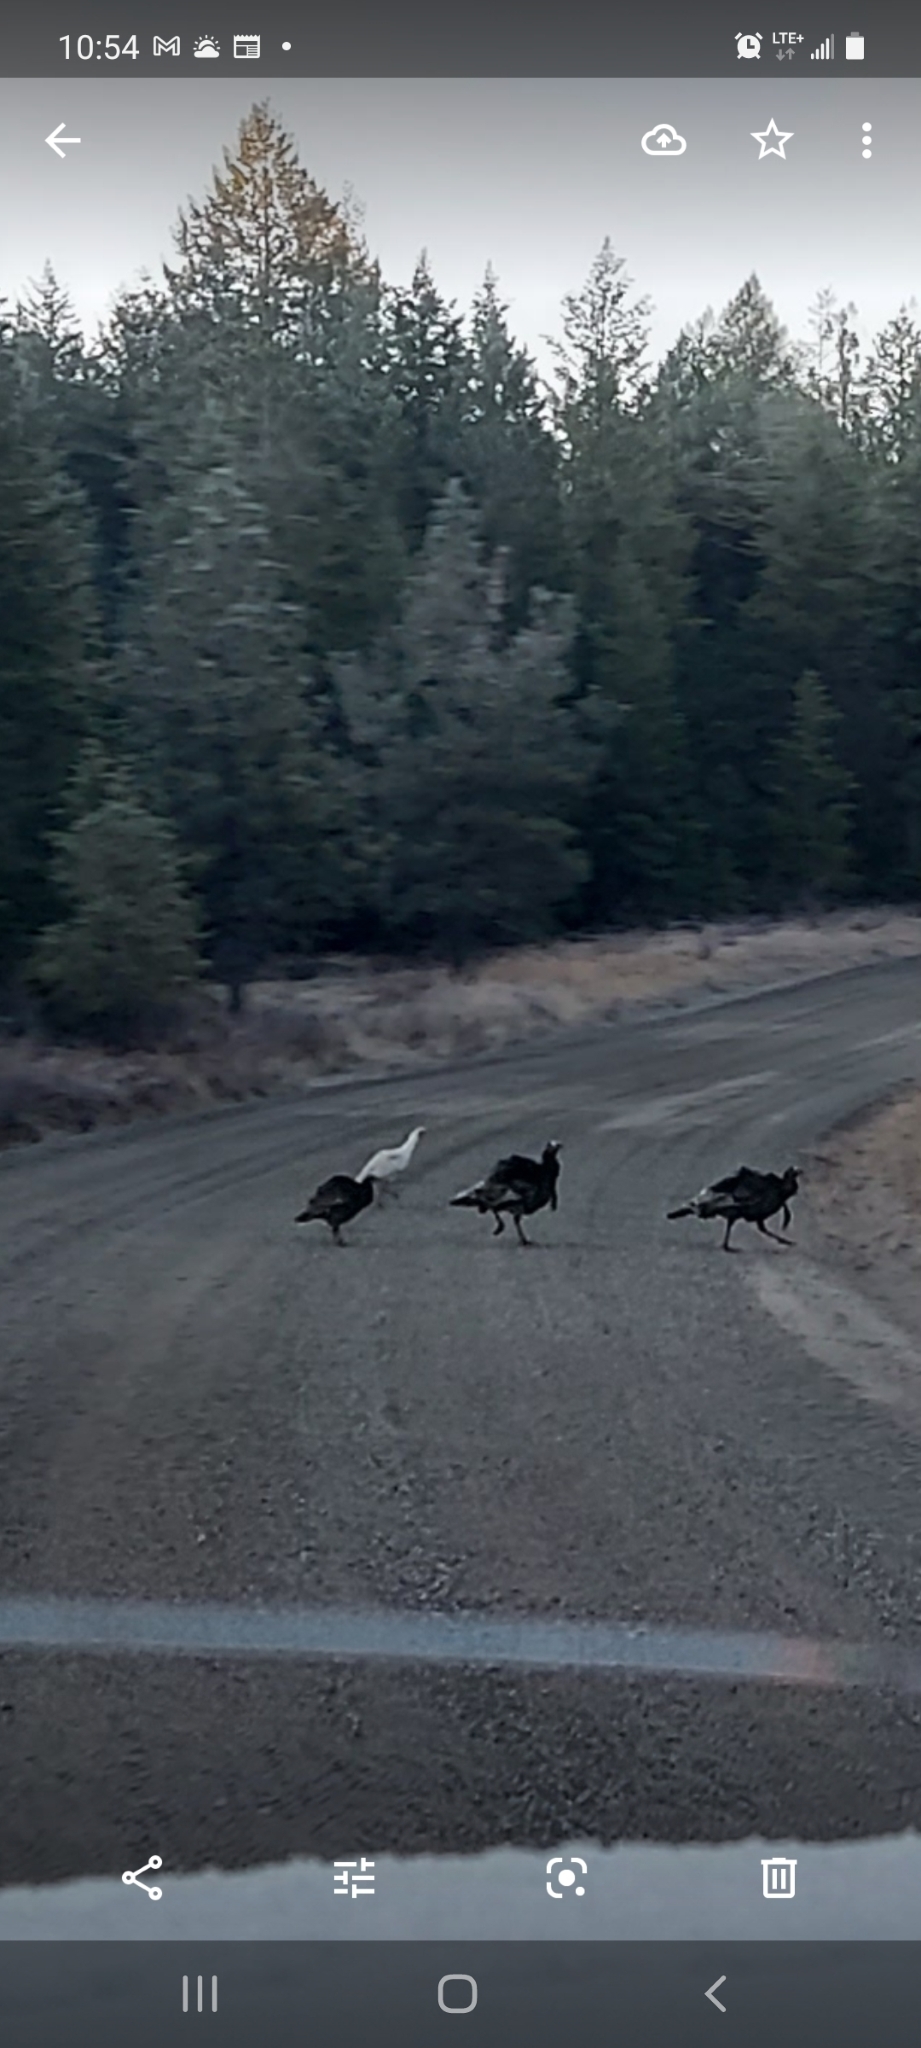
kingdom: Animalia
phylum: Chordata
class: Aves
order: Galliformes
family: Phasianidae
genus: Meleagris
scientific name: Meleagris gallopavo
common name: Wild turkey
